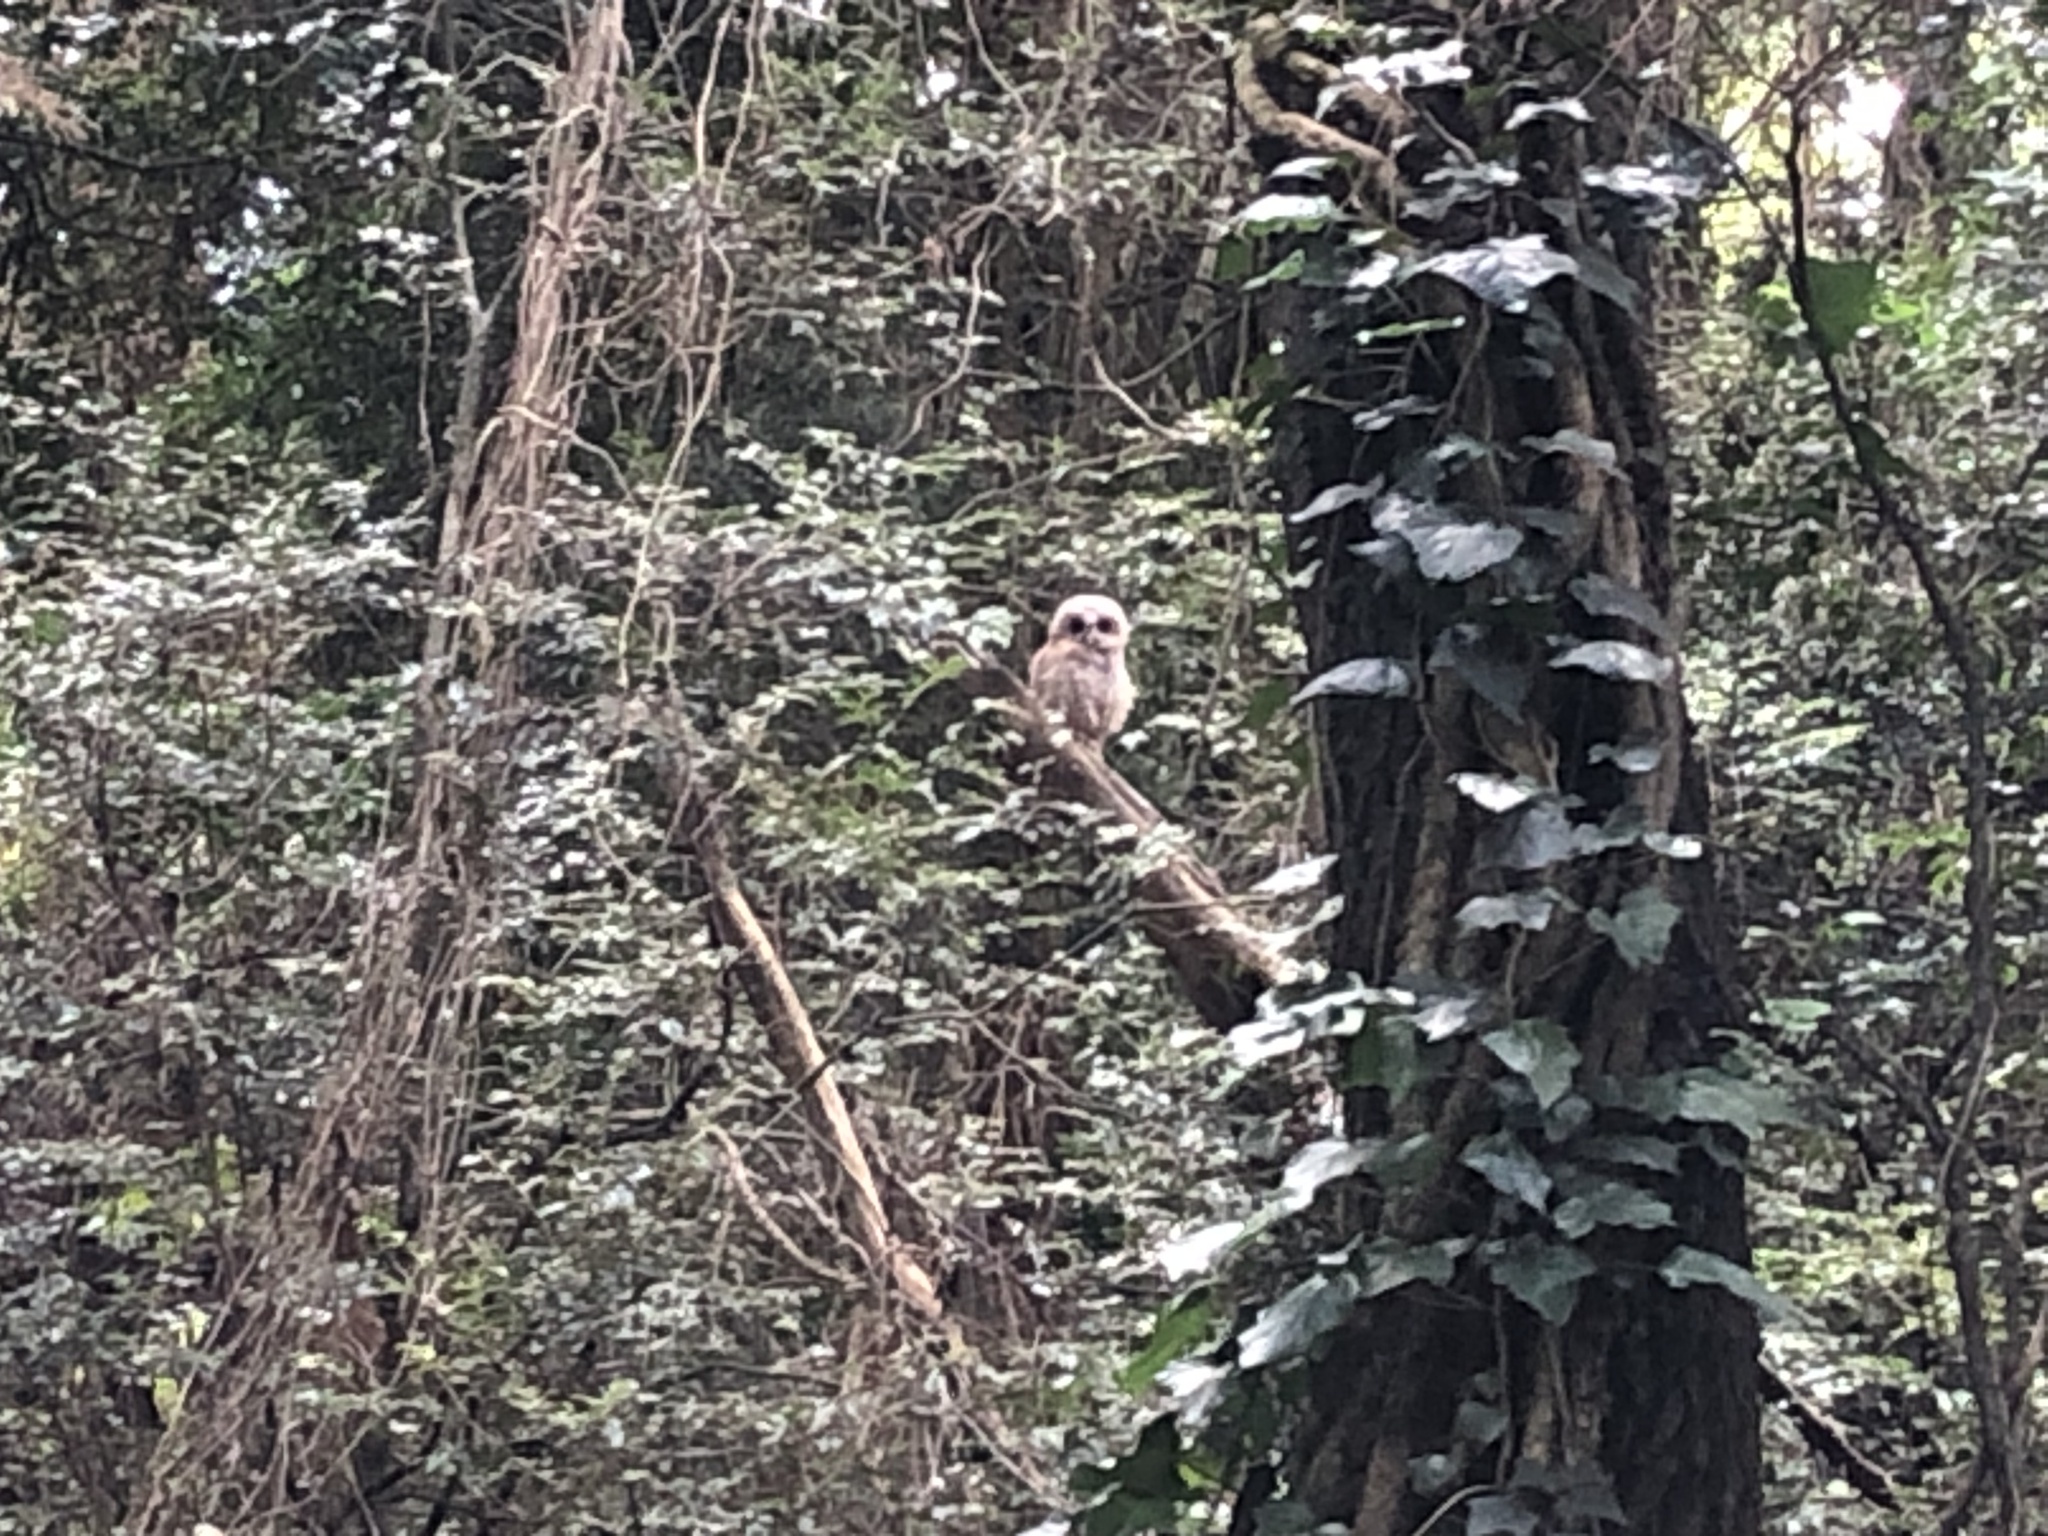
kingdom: Animalia
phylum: Chordata
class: Aves
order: Strigiformes
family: Strigidae
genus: Strix
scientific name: Strix woodfordii
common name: African wood owl
